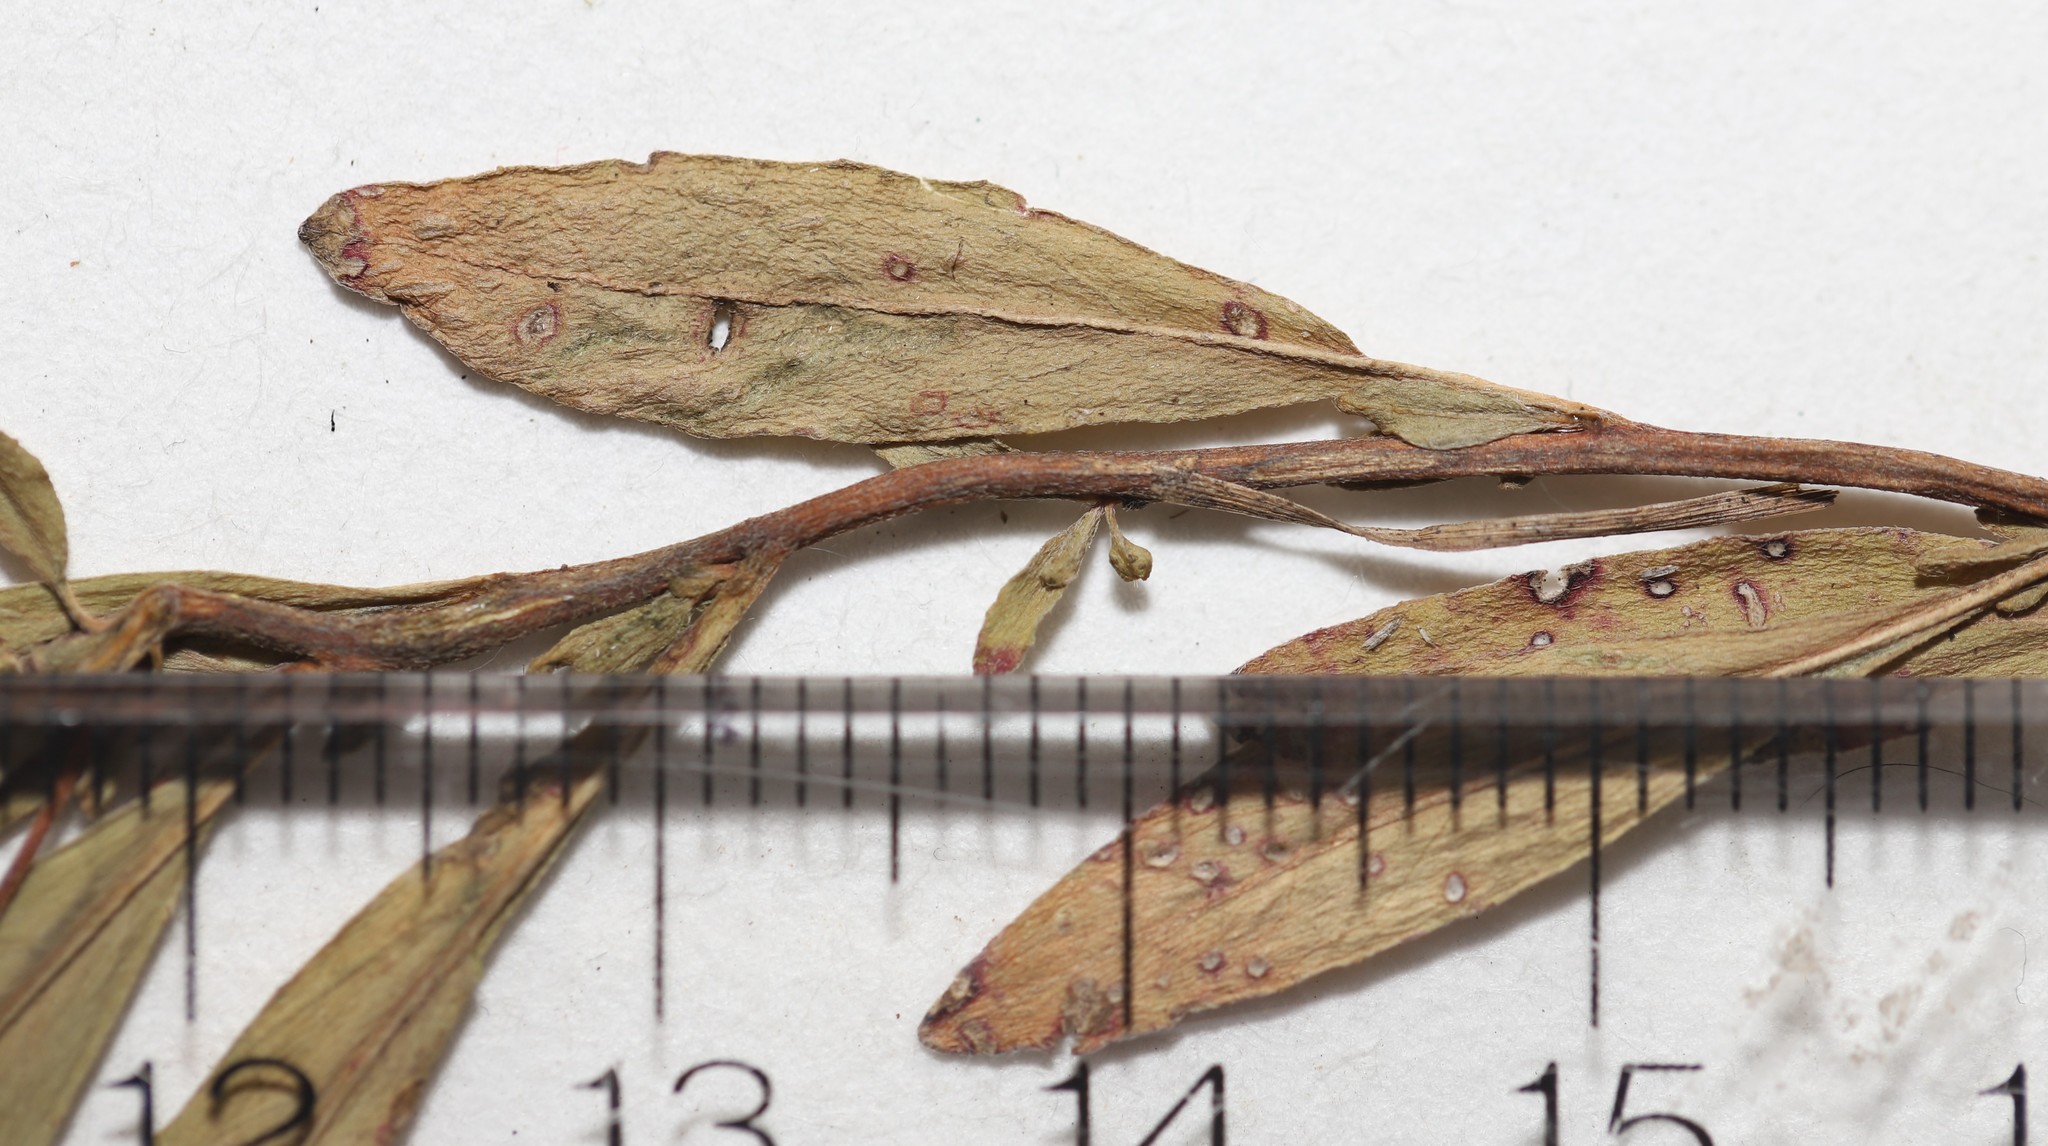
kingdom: Plantae
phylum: Tracheophyta
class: Magnoliopsida
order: Myrtales
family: Onagraceae
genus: Oenothera
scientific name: Oenothera perennis
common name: Small sundrops
